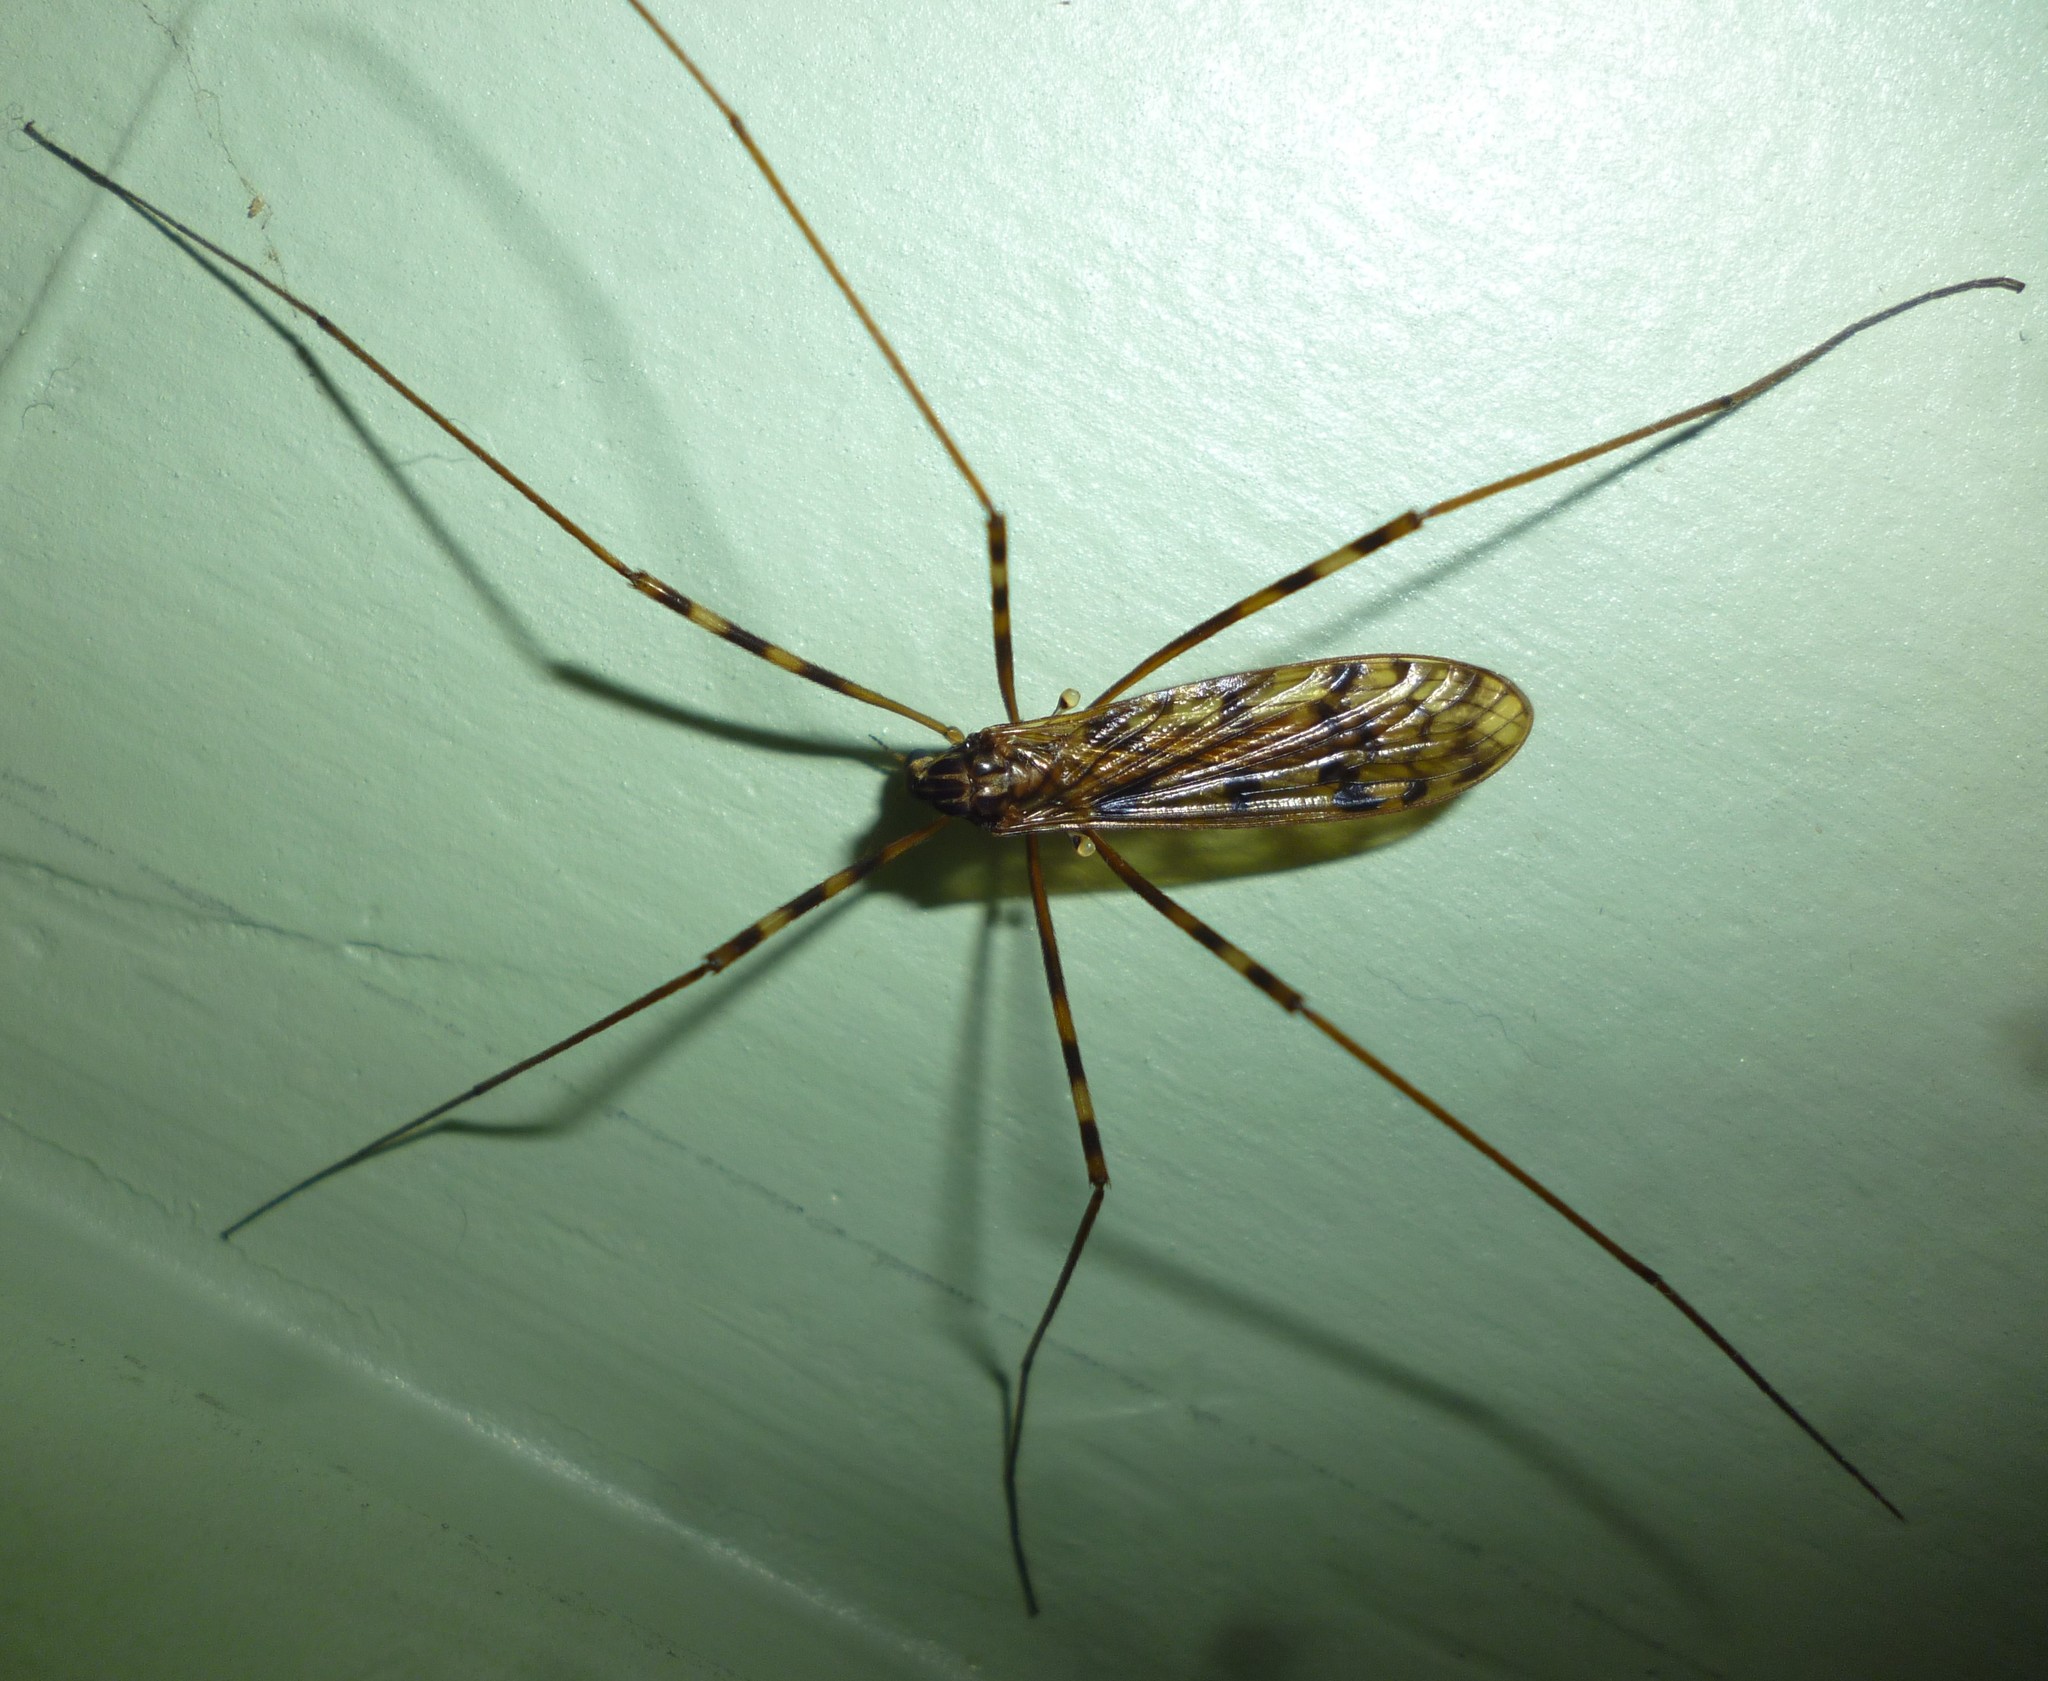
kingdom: Animalia
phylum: Arthropoda
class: Insecta
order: Diptera
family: Limoniidae
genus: Metalimnobia
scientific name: Metalimnobia immatura
